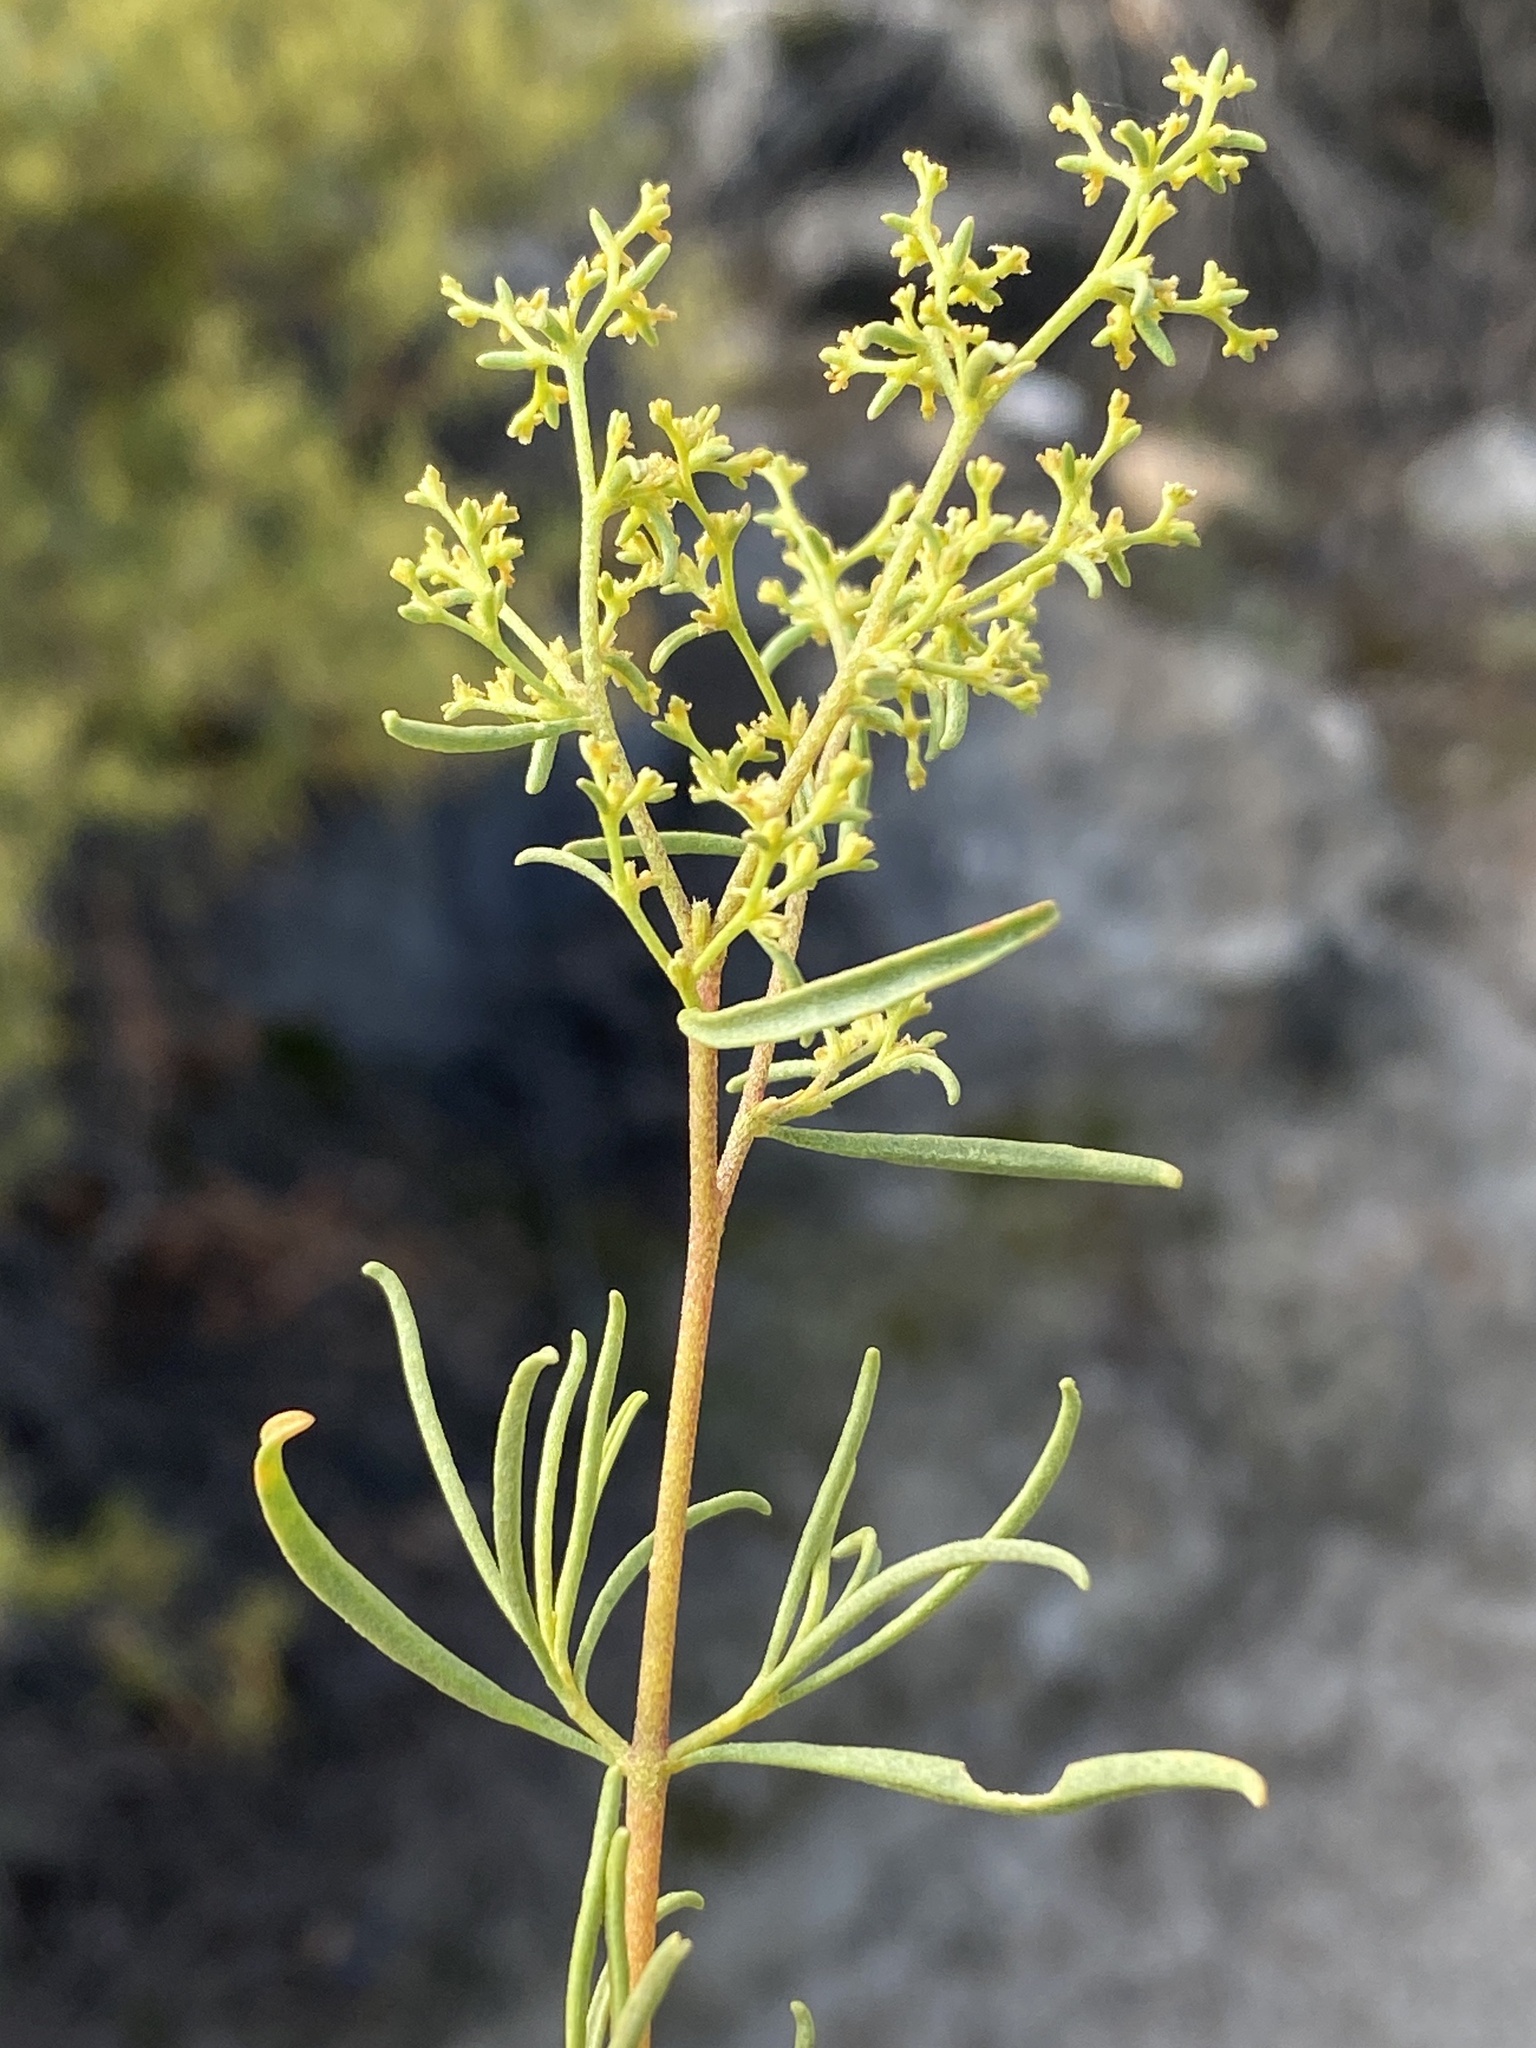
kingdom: Plantae
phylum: Tracheophyta
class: Magnoliopsida
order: Caryophyllales
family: Aizoaceae
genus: Aizoon
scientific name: Aizoon africanum
